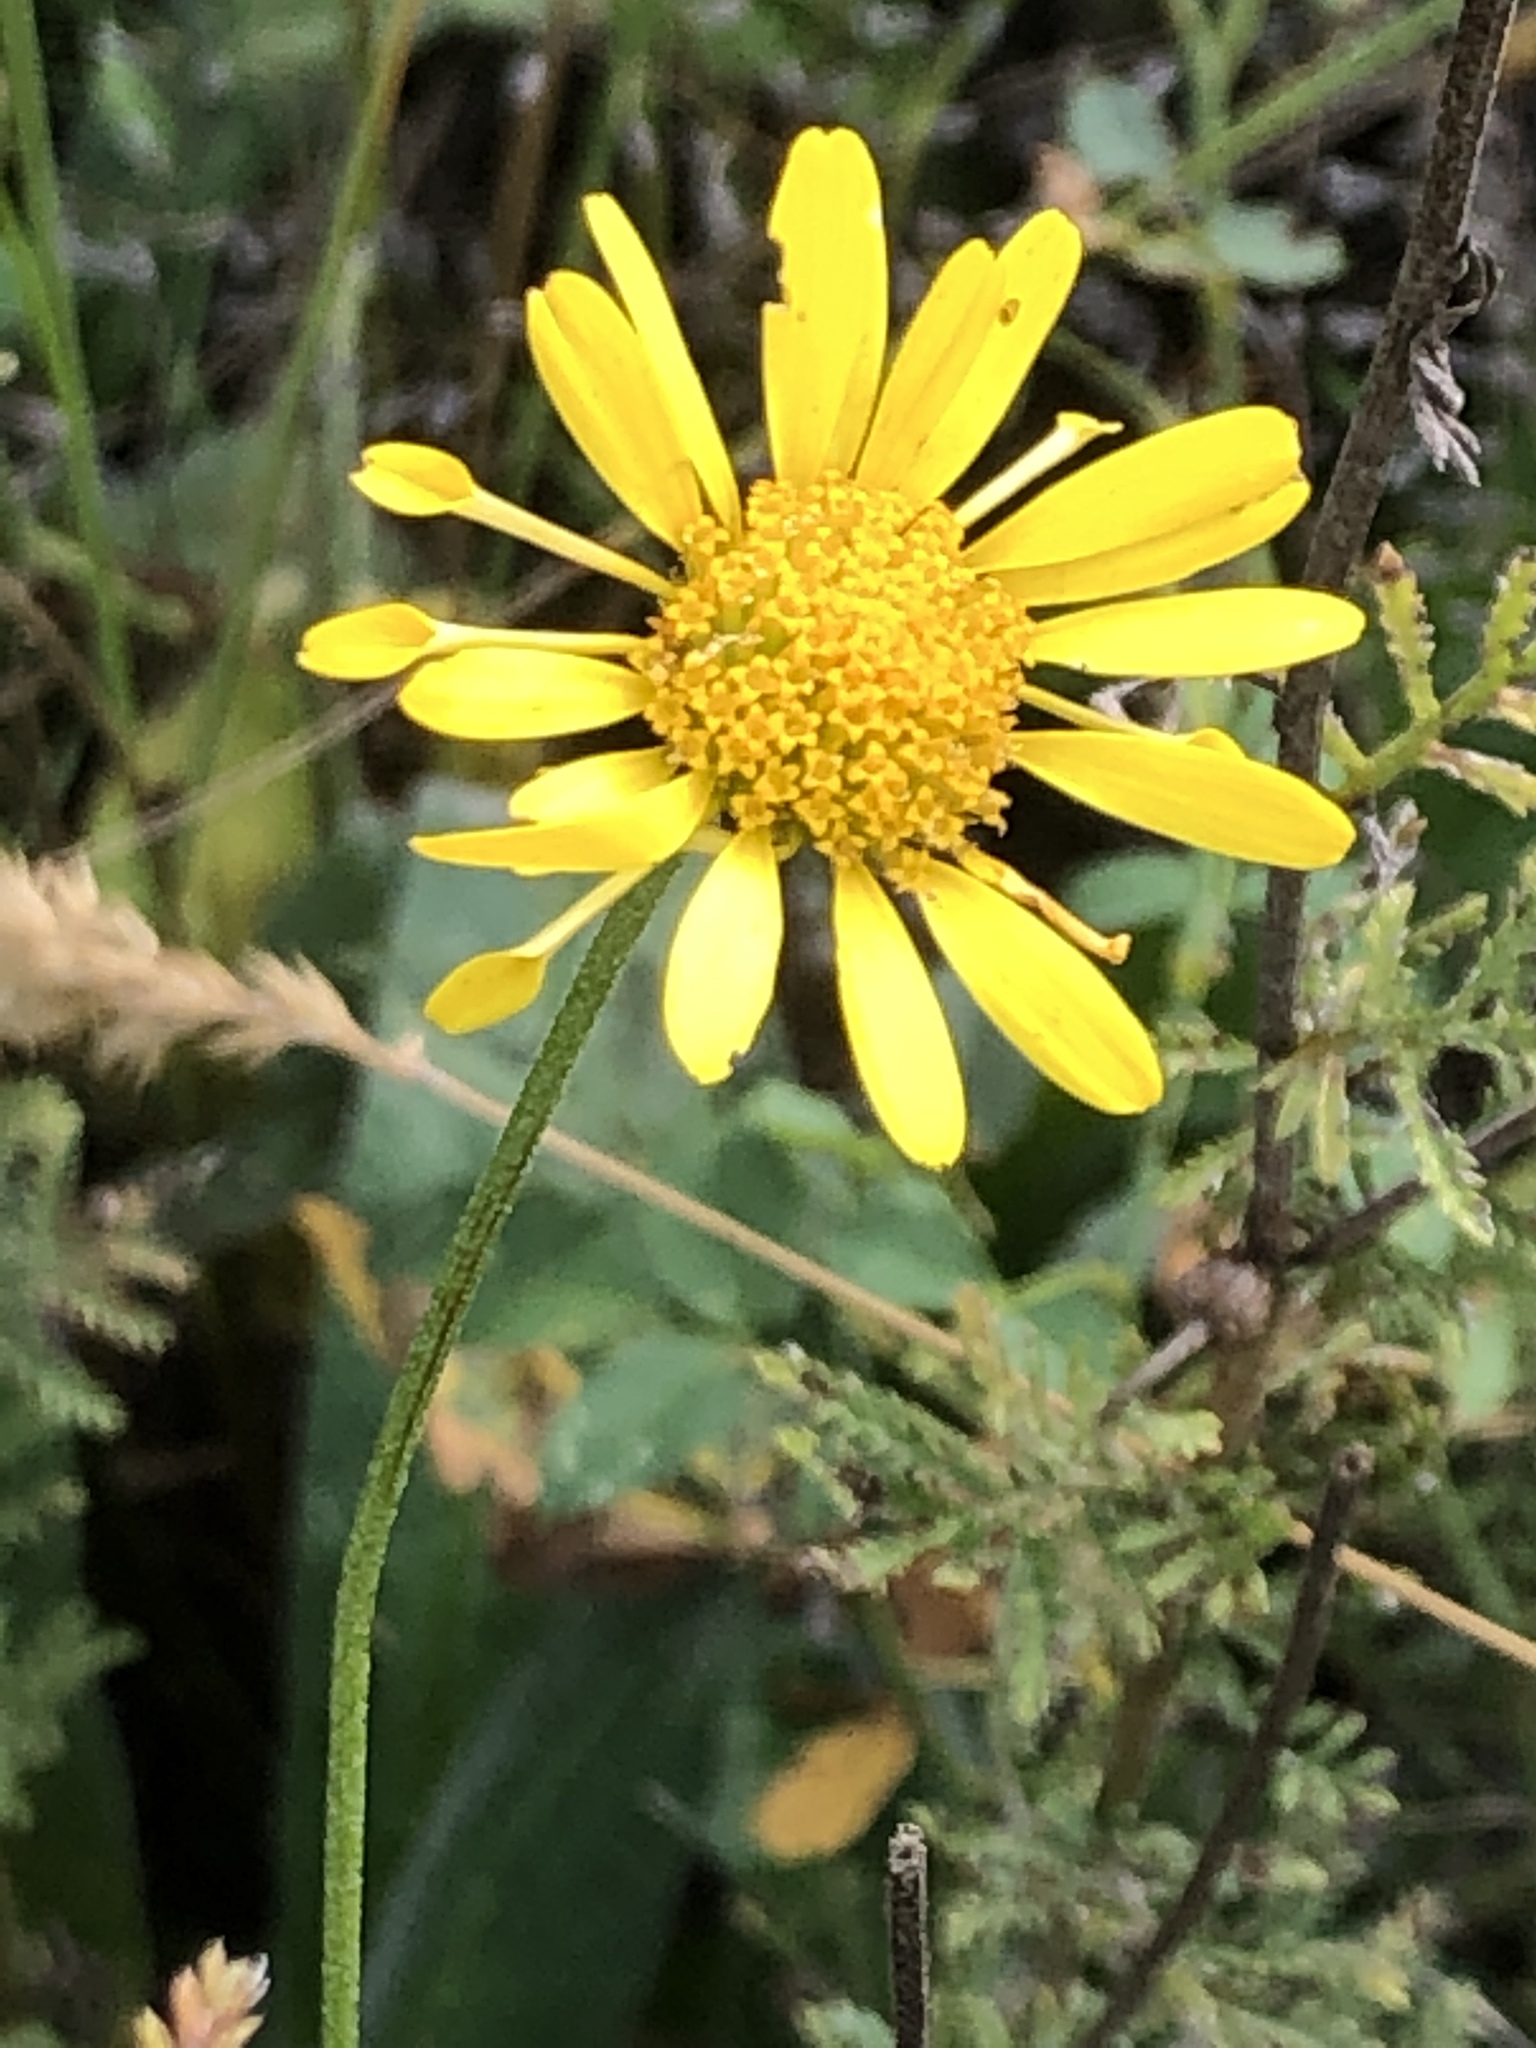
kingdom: Plantae
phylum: Tracheophyta
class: Magnoliopsida
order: Asterales
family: Asteraceae
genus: Cota
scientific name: Cota tinctoria
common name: Golden chamomile
